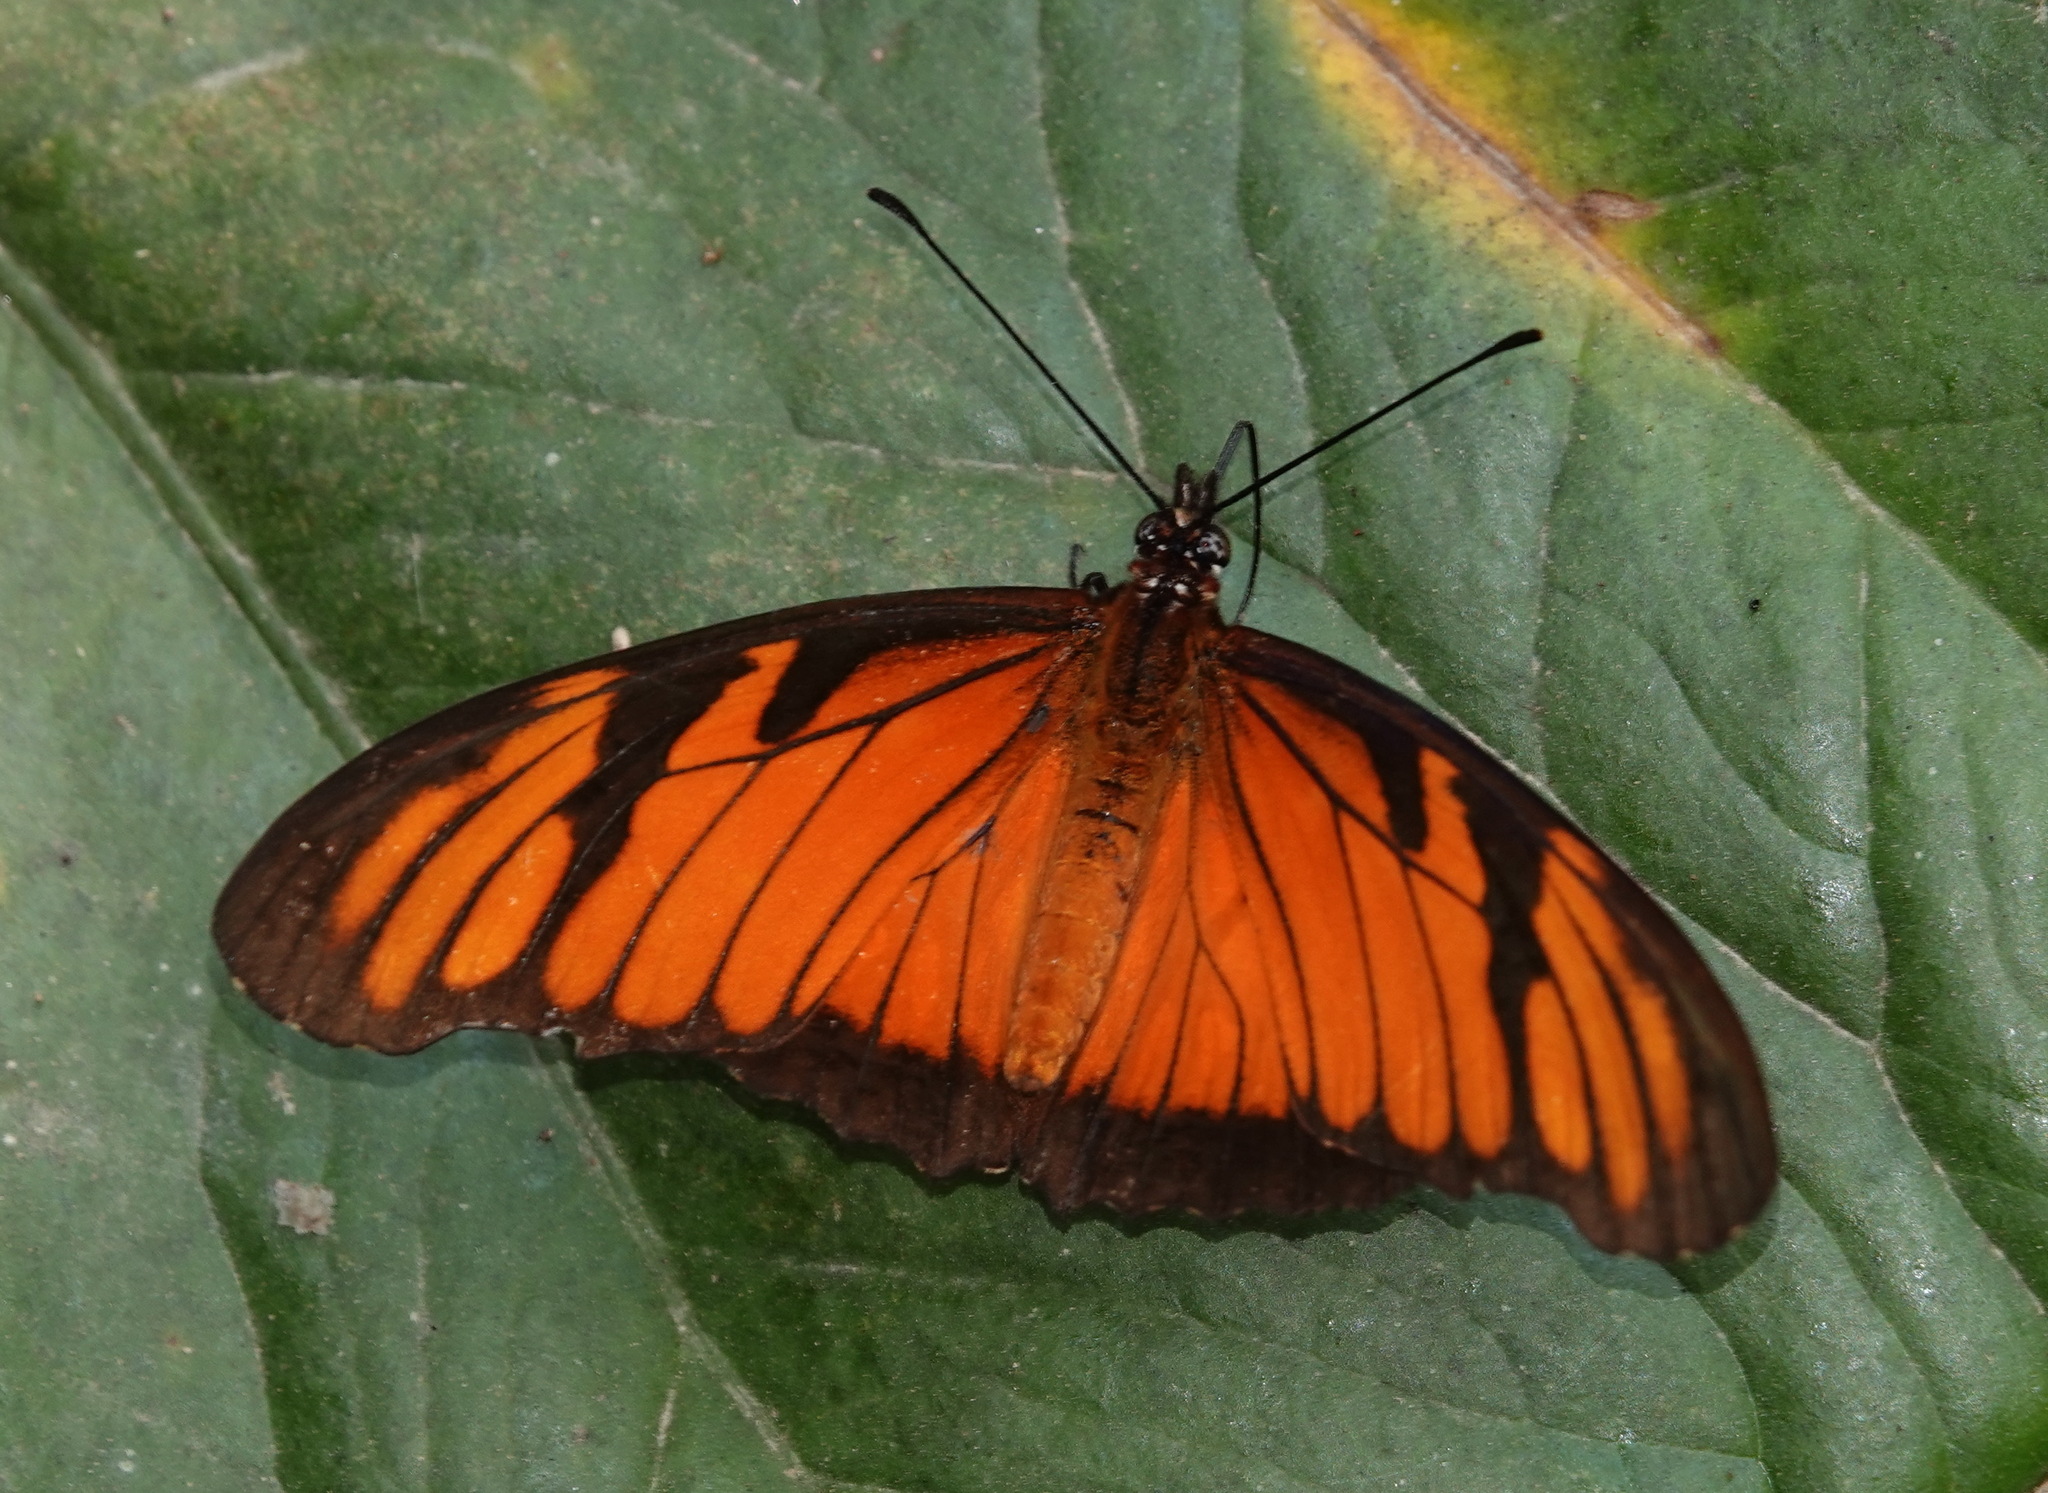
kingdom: Animalia
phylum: Arthropoda
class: Insecta
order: Lepidoptera
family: Nymphalidae
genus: Dione
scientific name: Dione juno
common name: Juno silverspot
